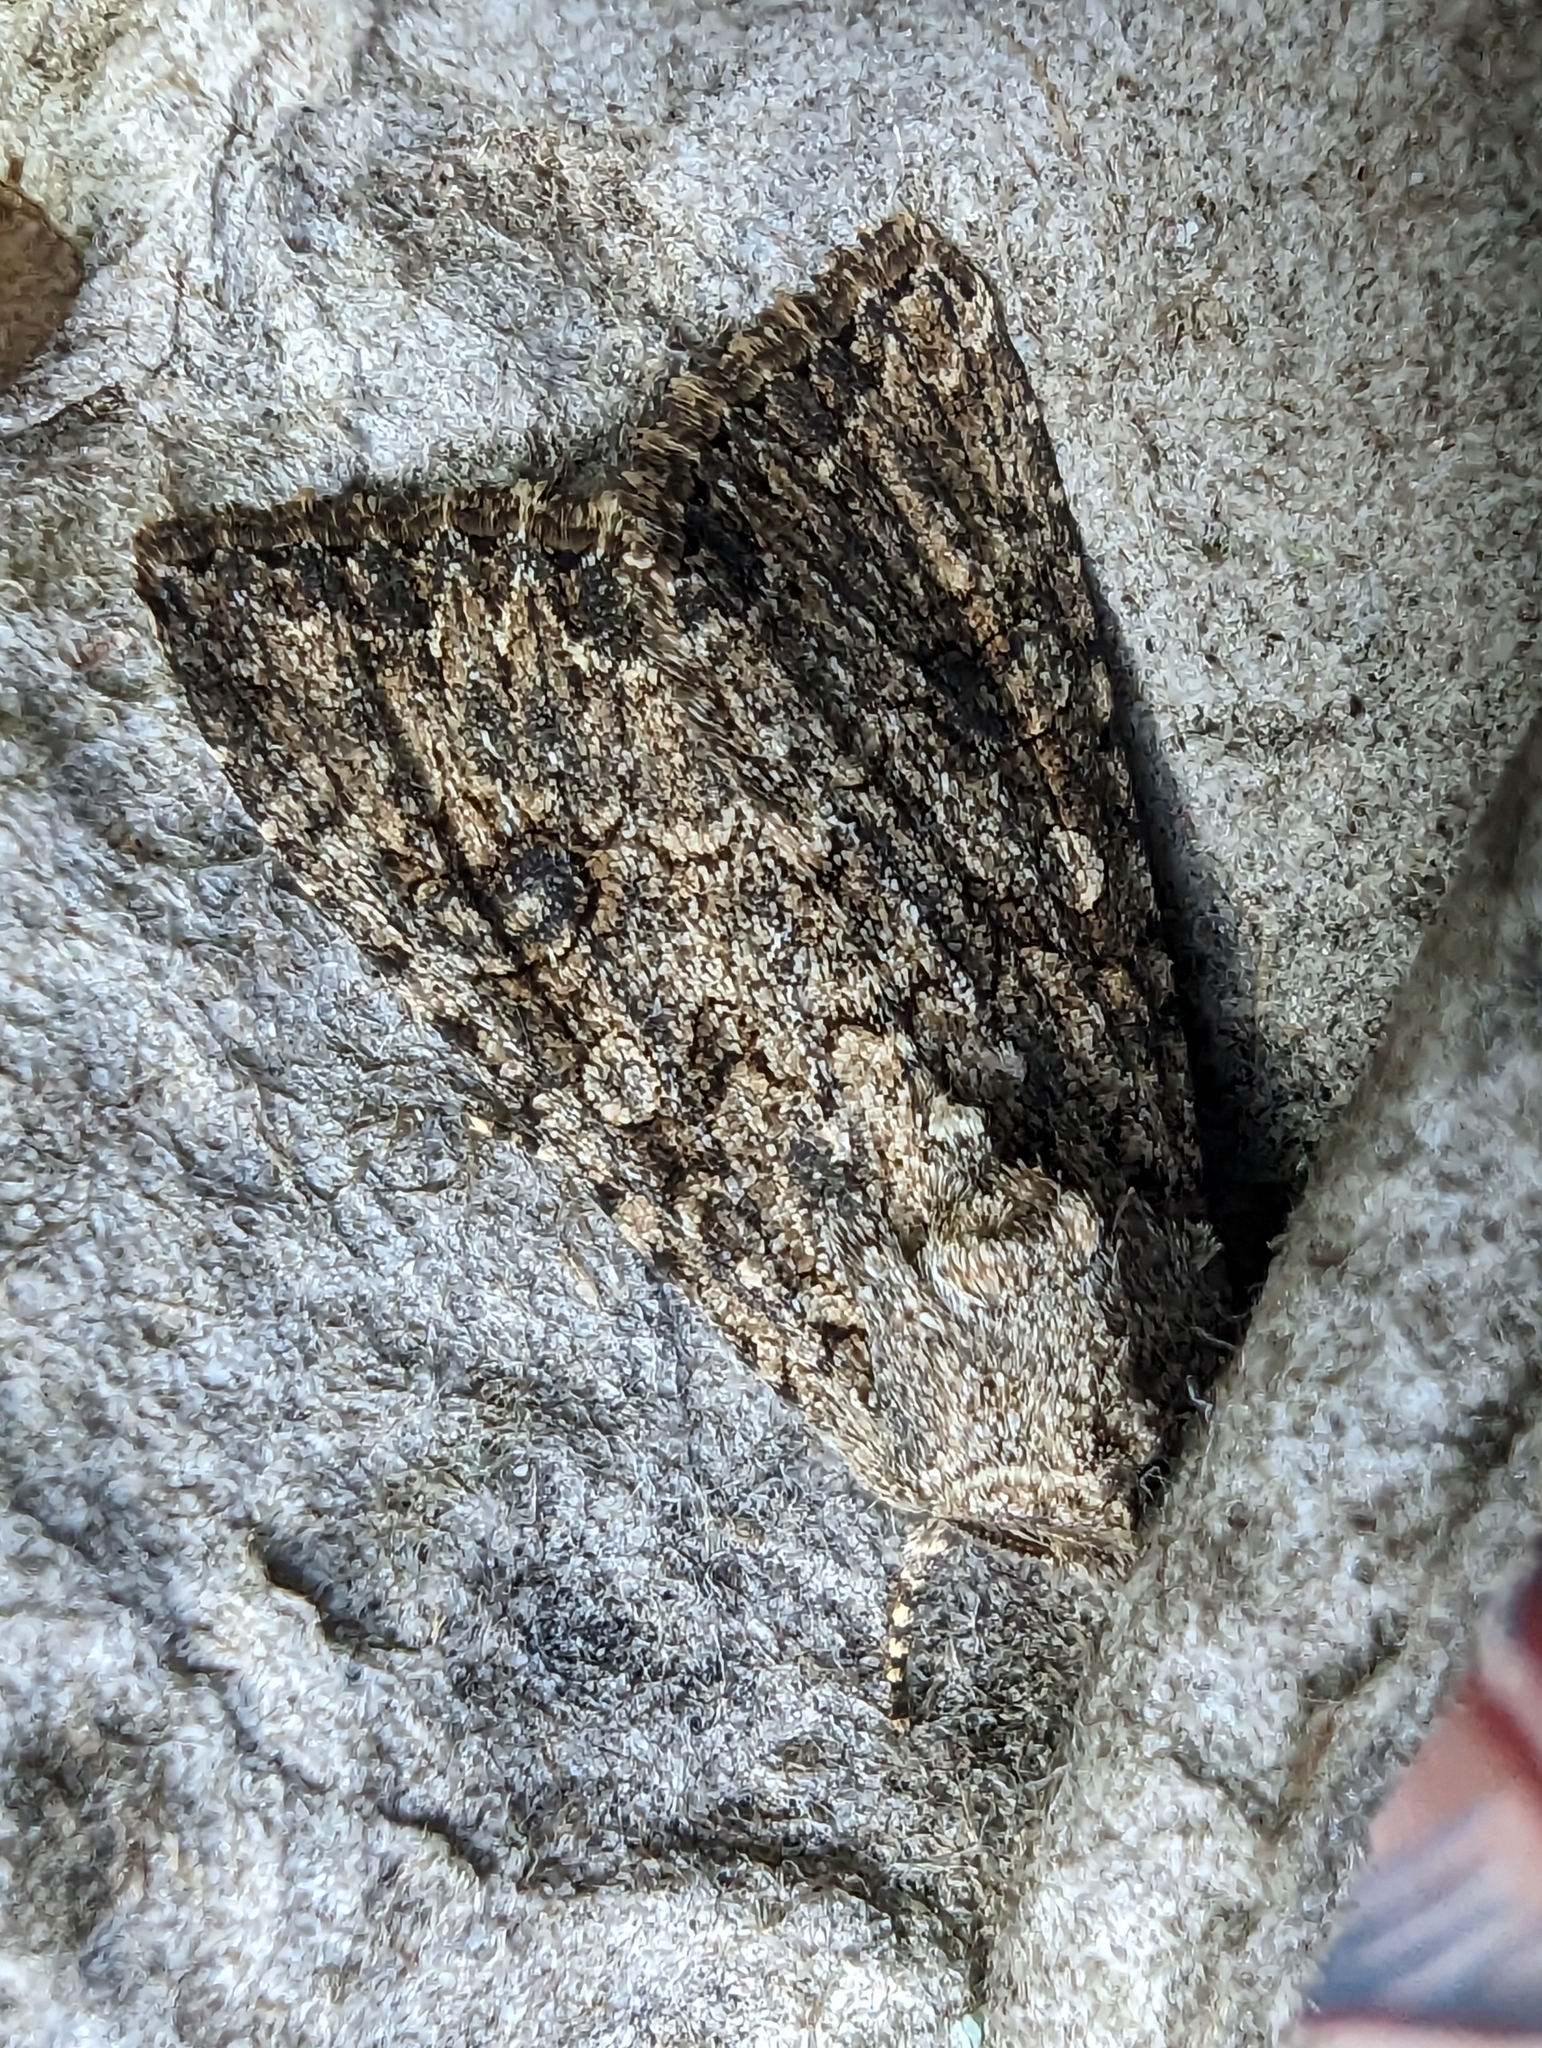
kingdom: Animalia
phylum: Arthropoda
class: Insecta
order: Lepidoptera
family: Noctuidae
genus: Anarta
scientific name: Anarta trifolii
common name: Clover cutworm moth
